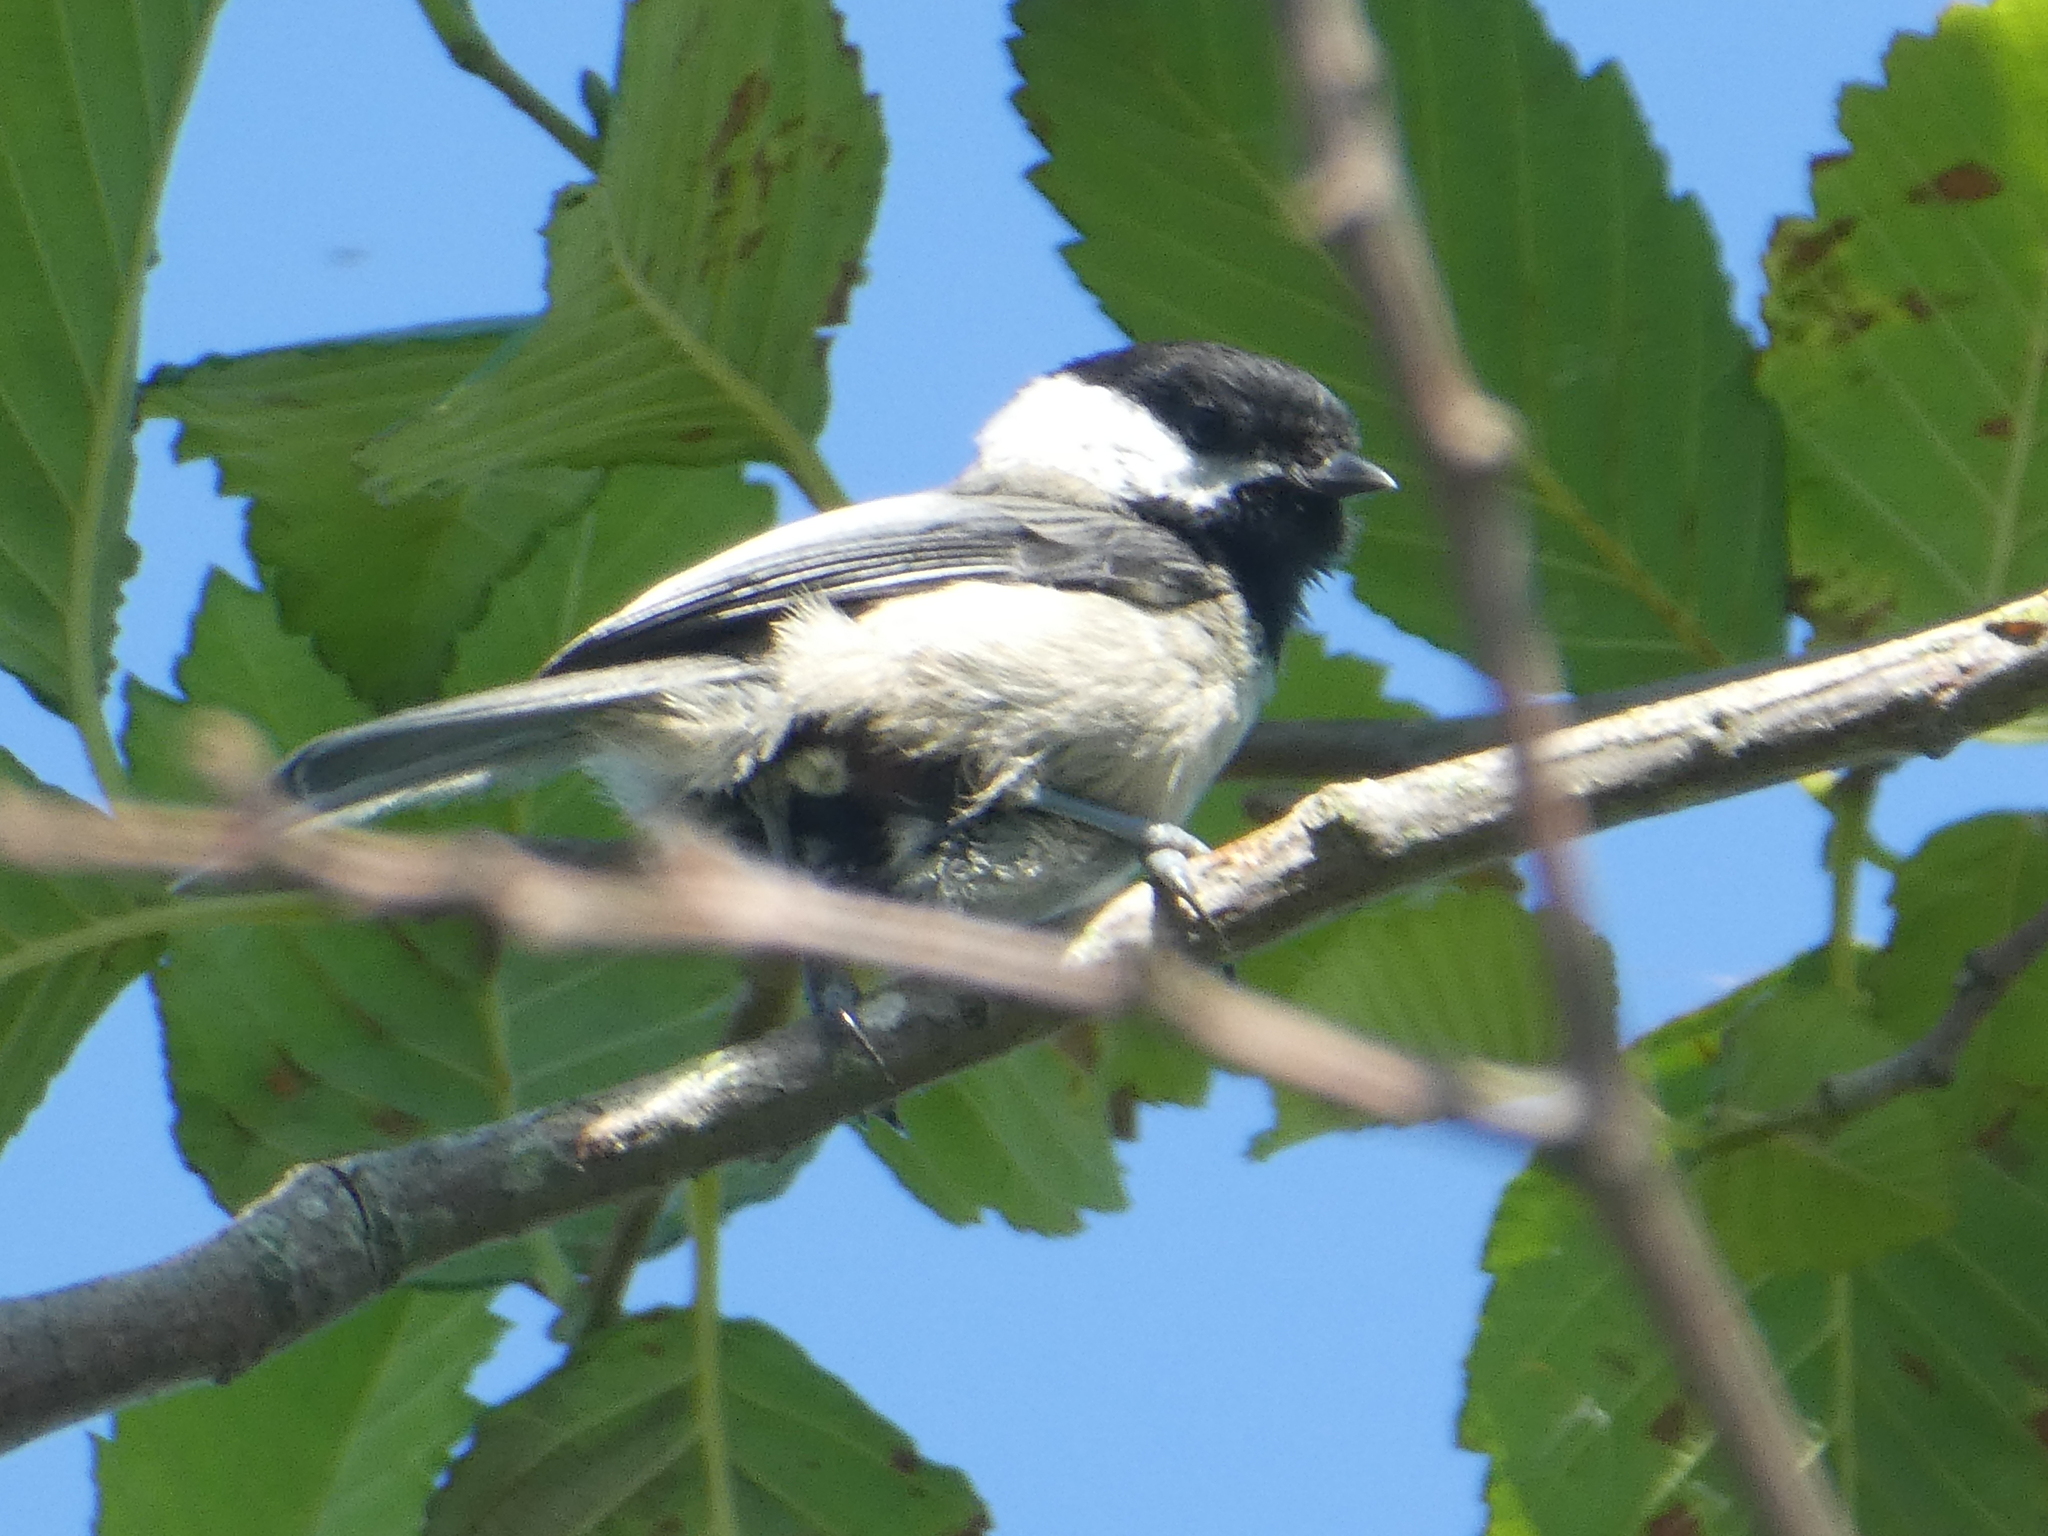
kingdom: Animalia
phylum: Chordata
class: Aves
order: Passeriformes
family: Paridae
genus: Poecile
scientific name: Poecile atricapillus
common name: Black-capped chickadee
